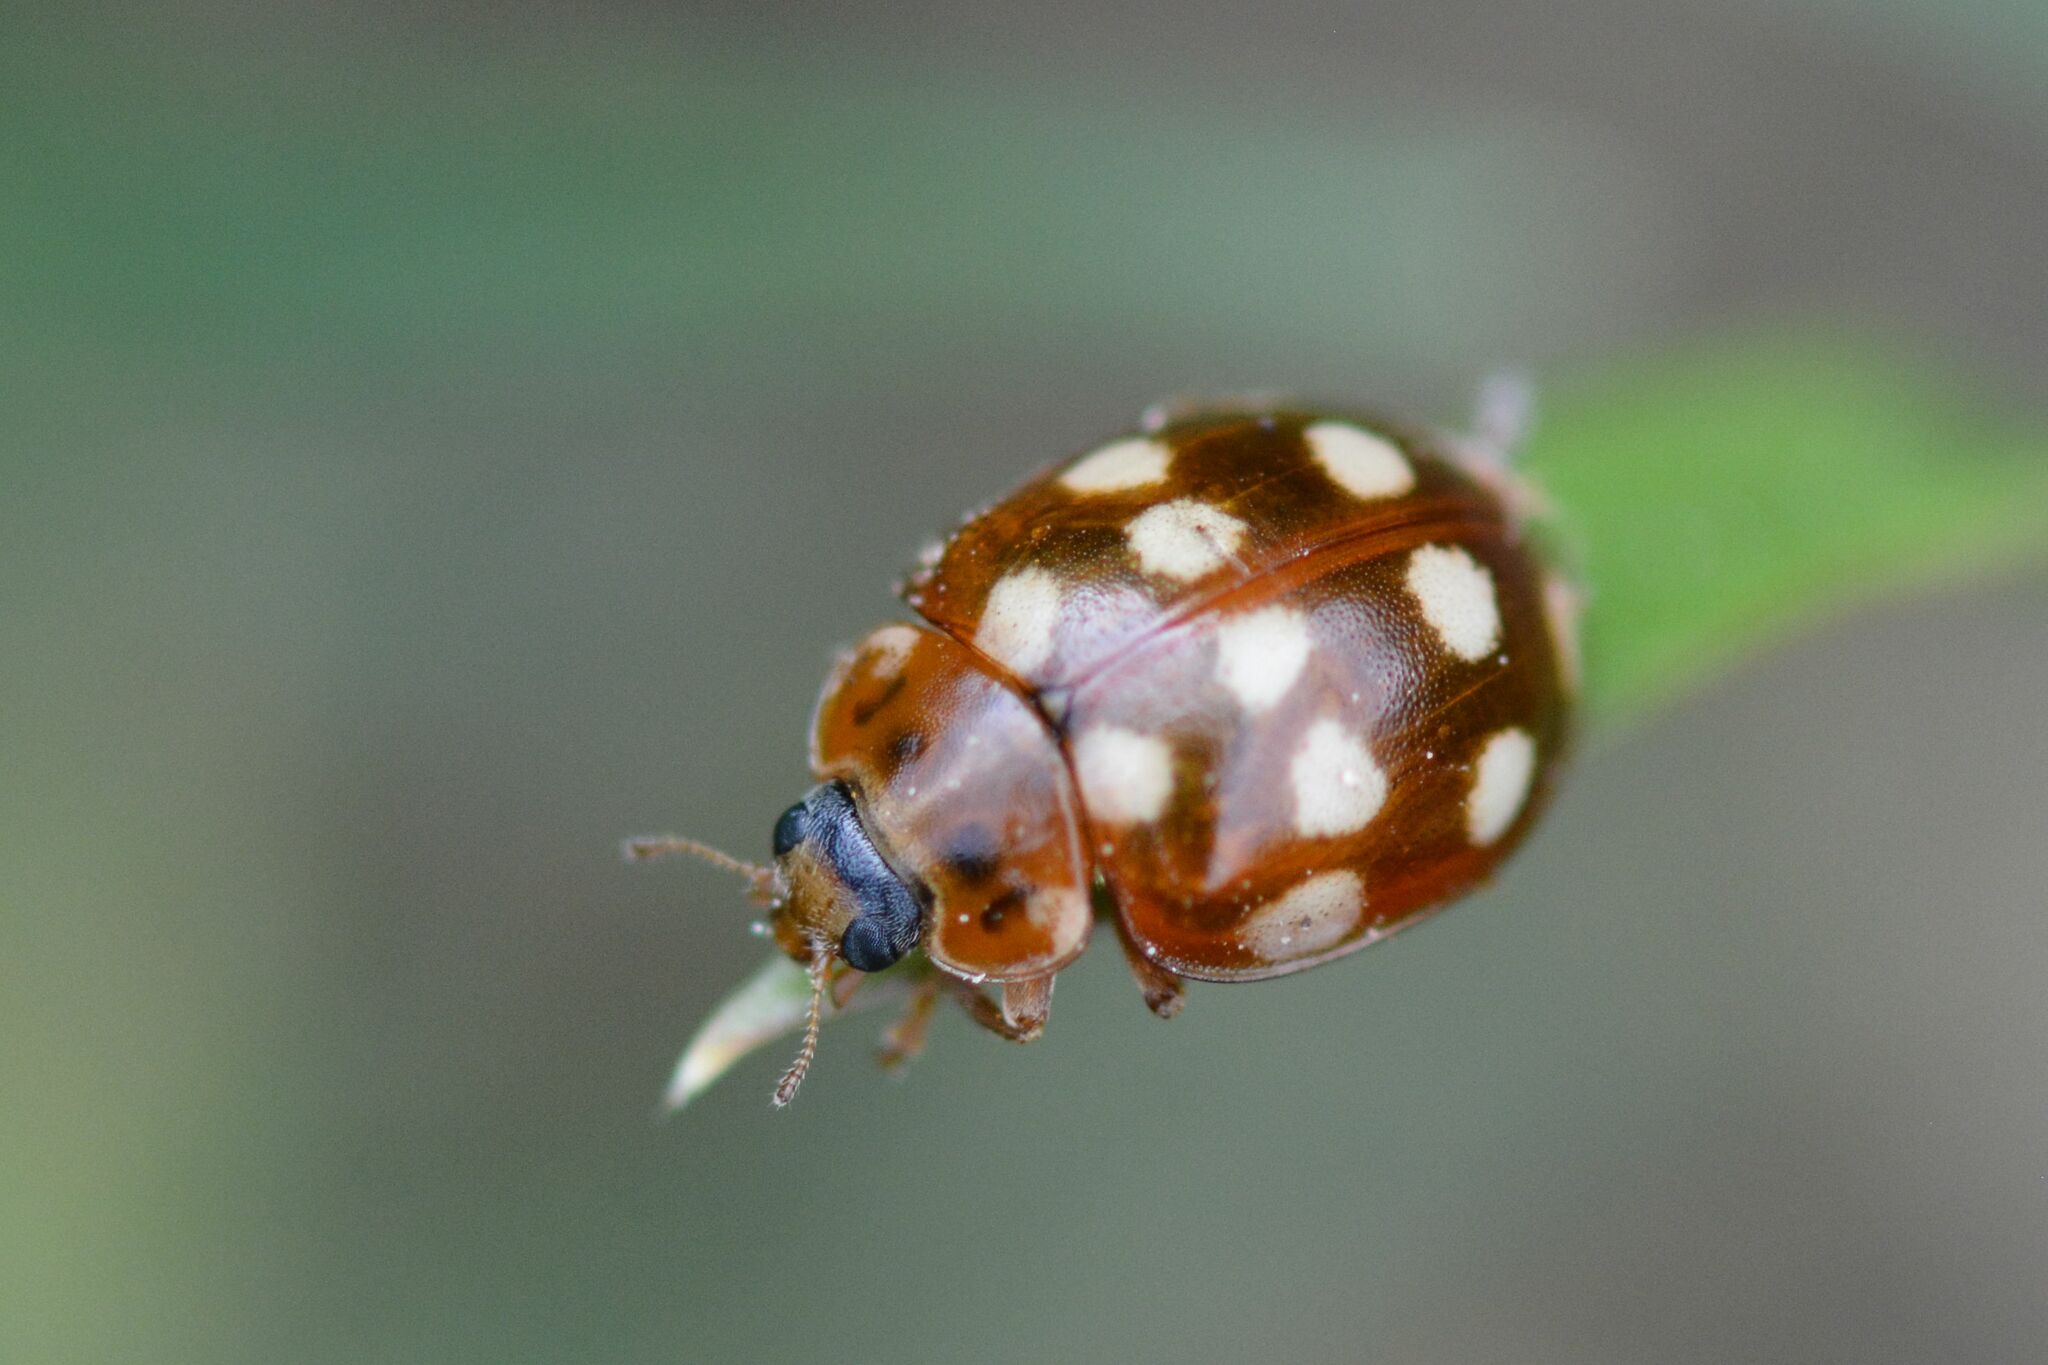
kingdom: Animalia
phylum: Arthropoda
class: Insecta
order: Coleoptera
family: Coccinellidae
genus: Calvia
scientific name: Calvia quatuordecimguttata
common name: Cream-spot ladybird
